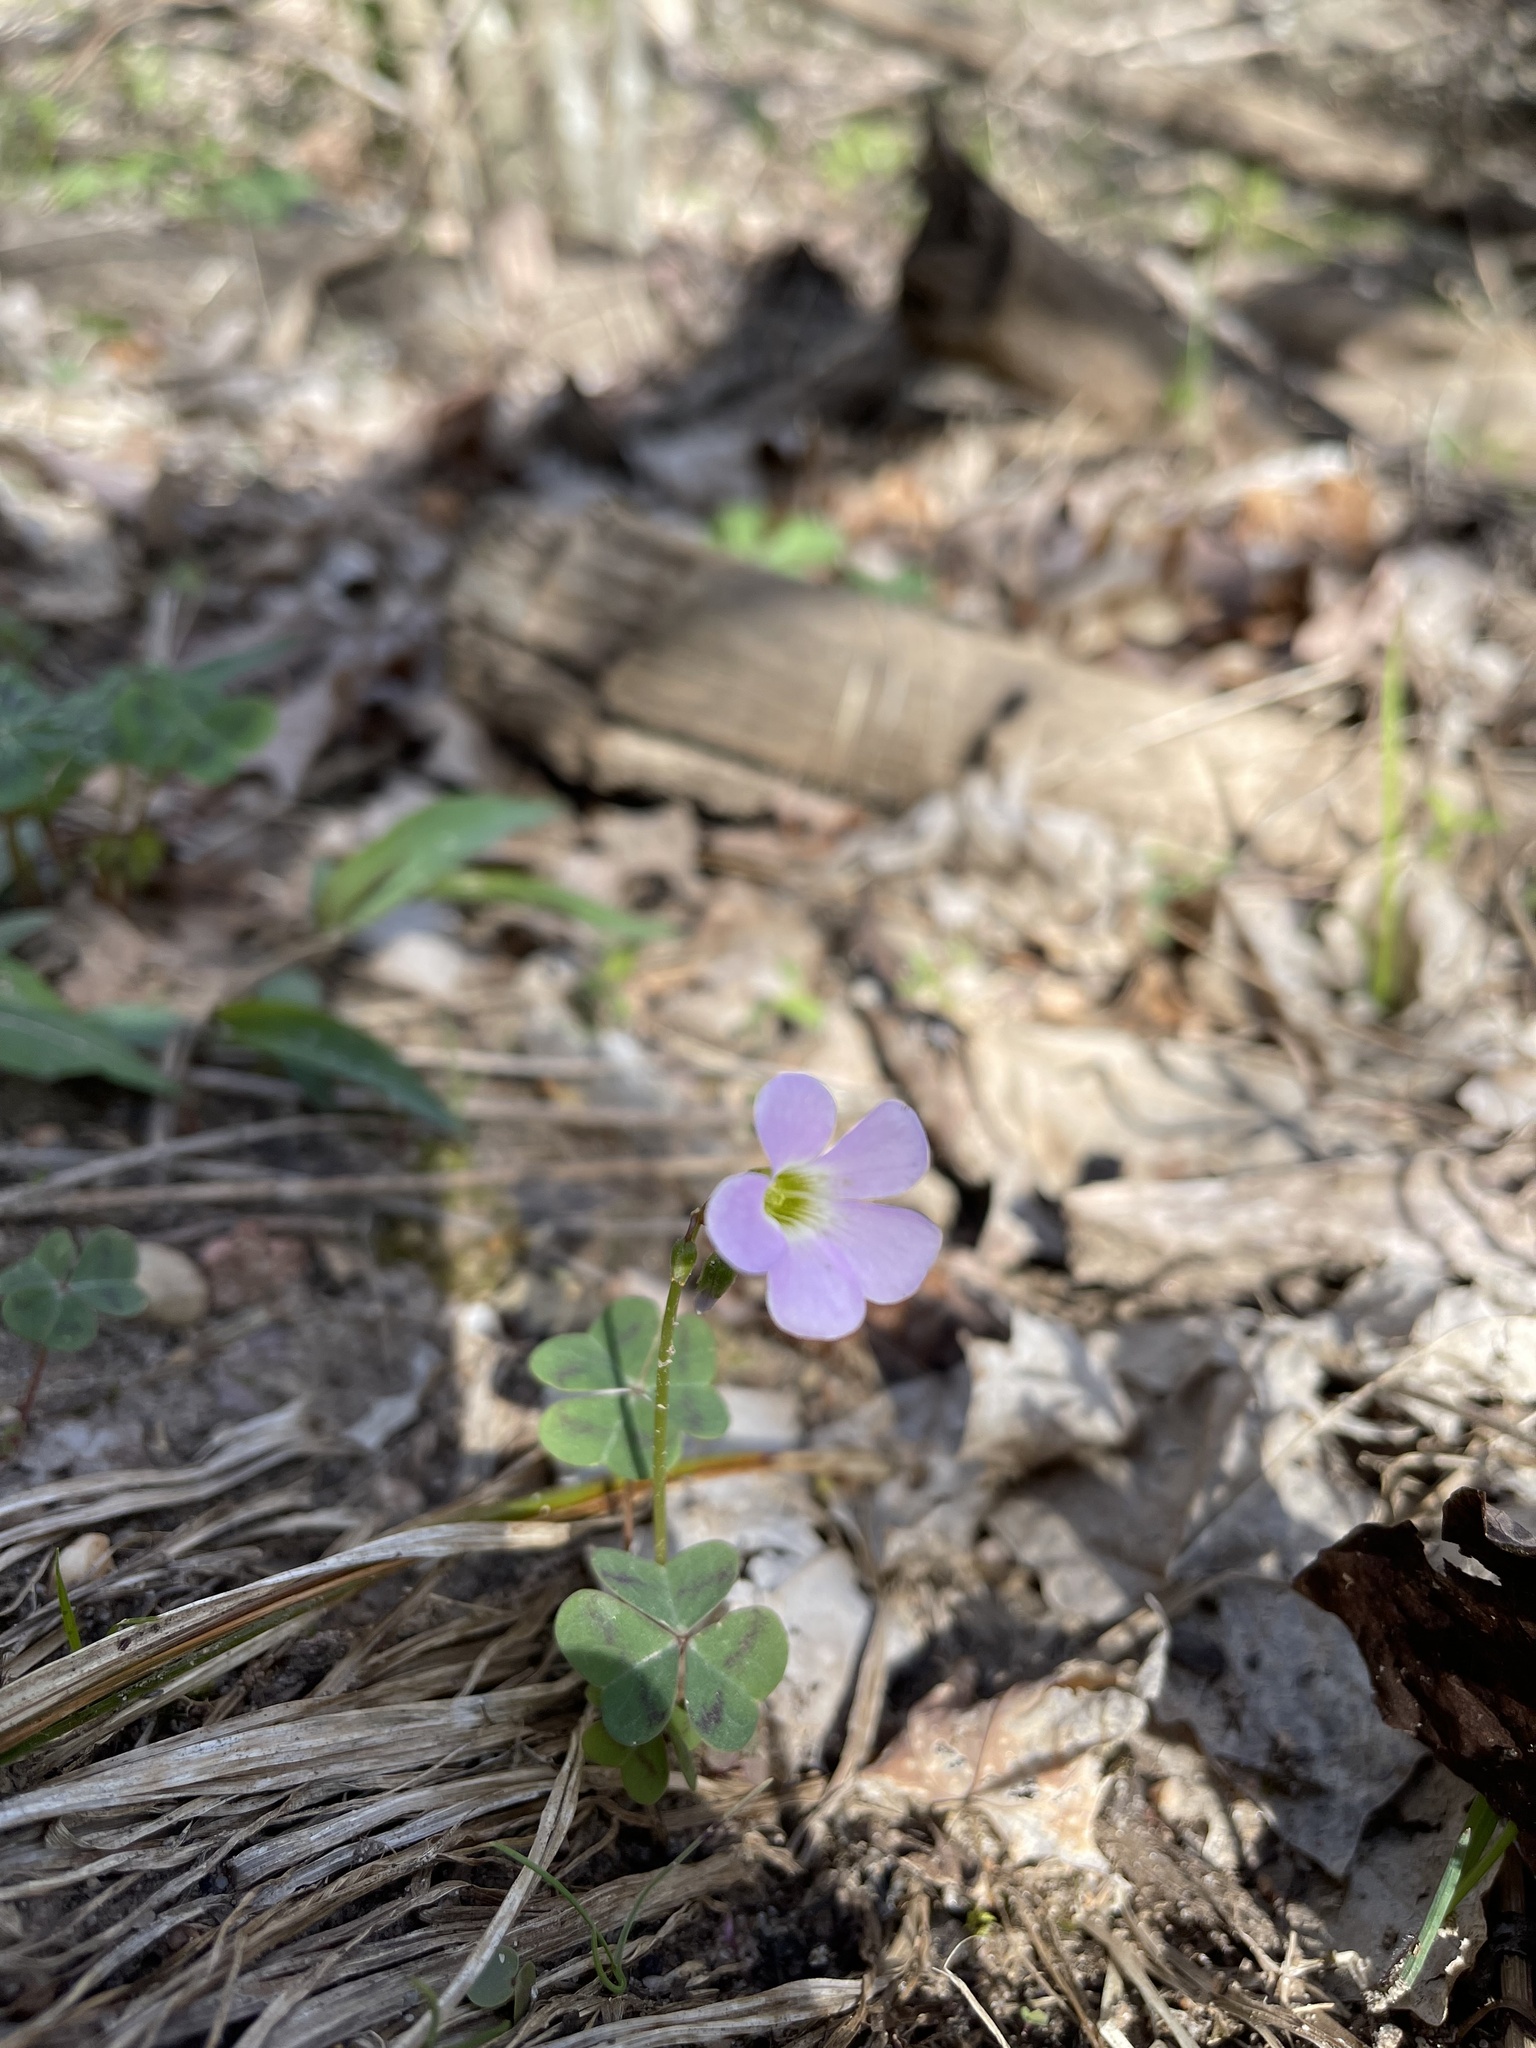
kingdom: Plantae
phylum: Tracheophyta
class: Magnoliopsida
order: Oxalidales
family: Oxalidaceae
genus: Oxalis
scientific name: Oxalis violacea
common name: Violet wood-sorrel
